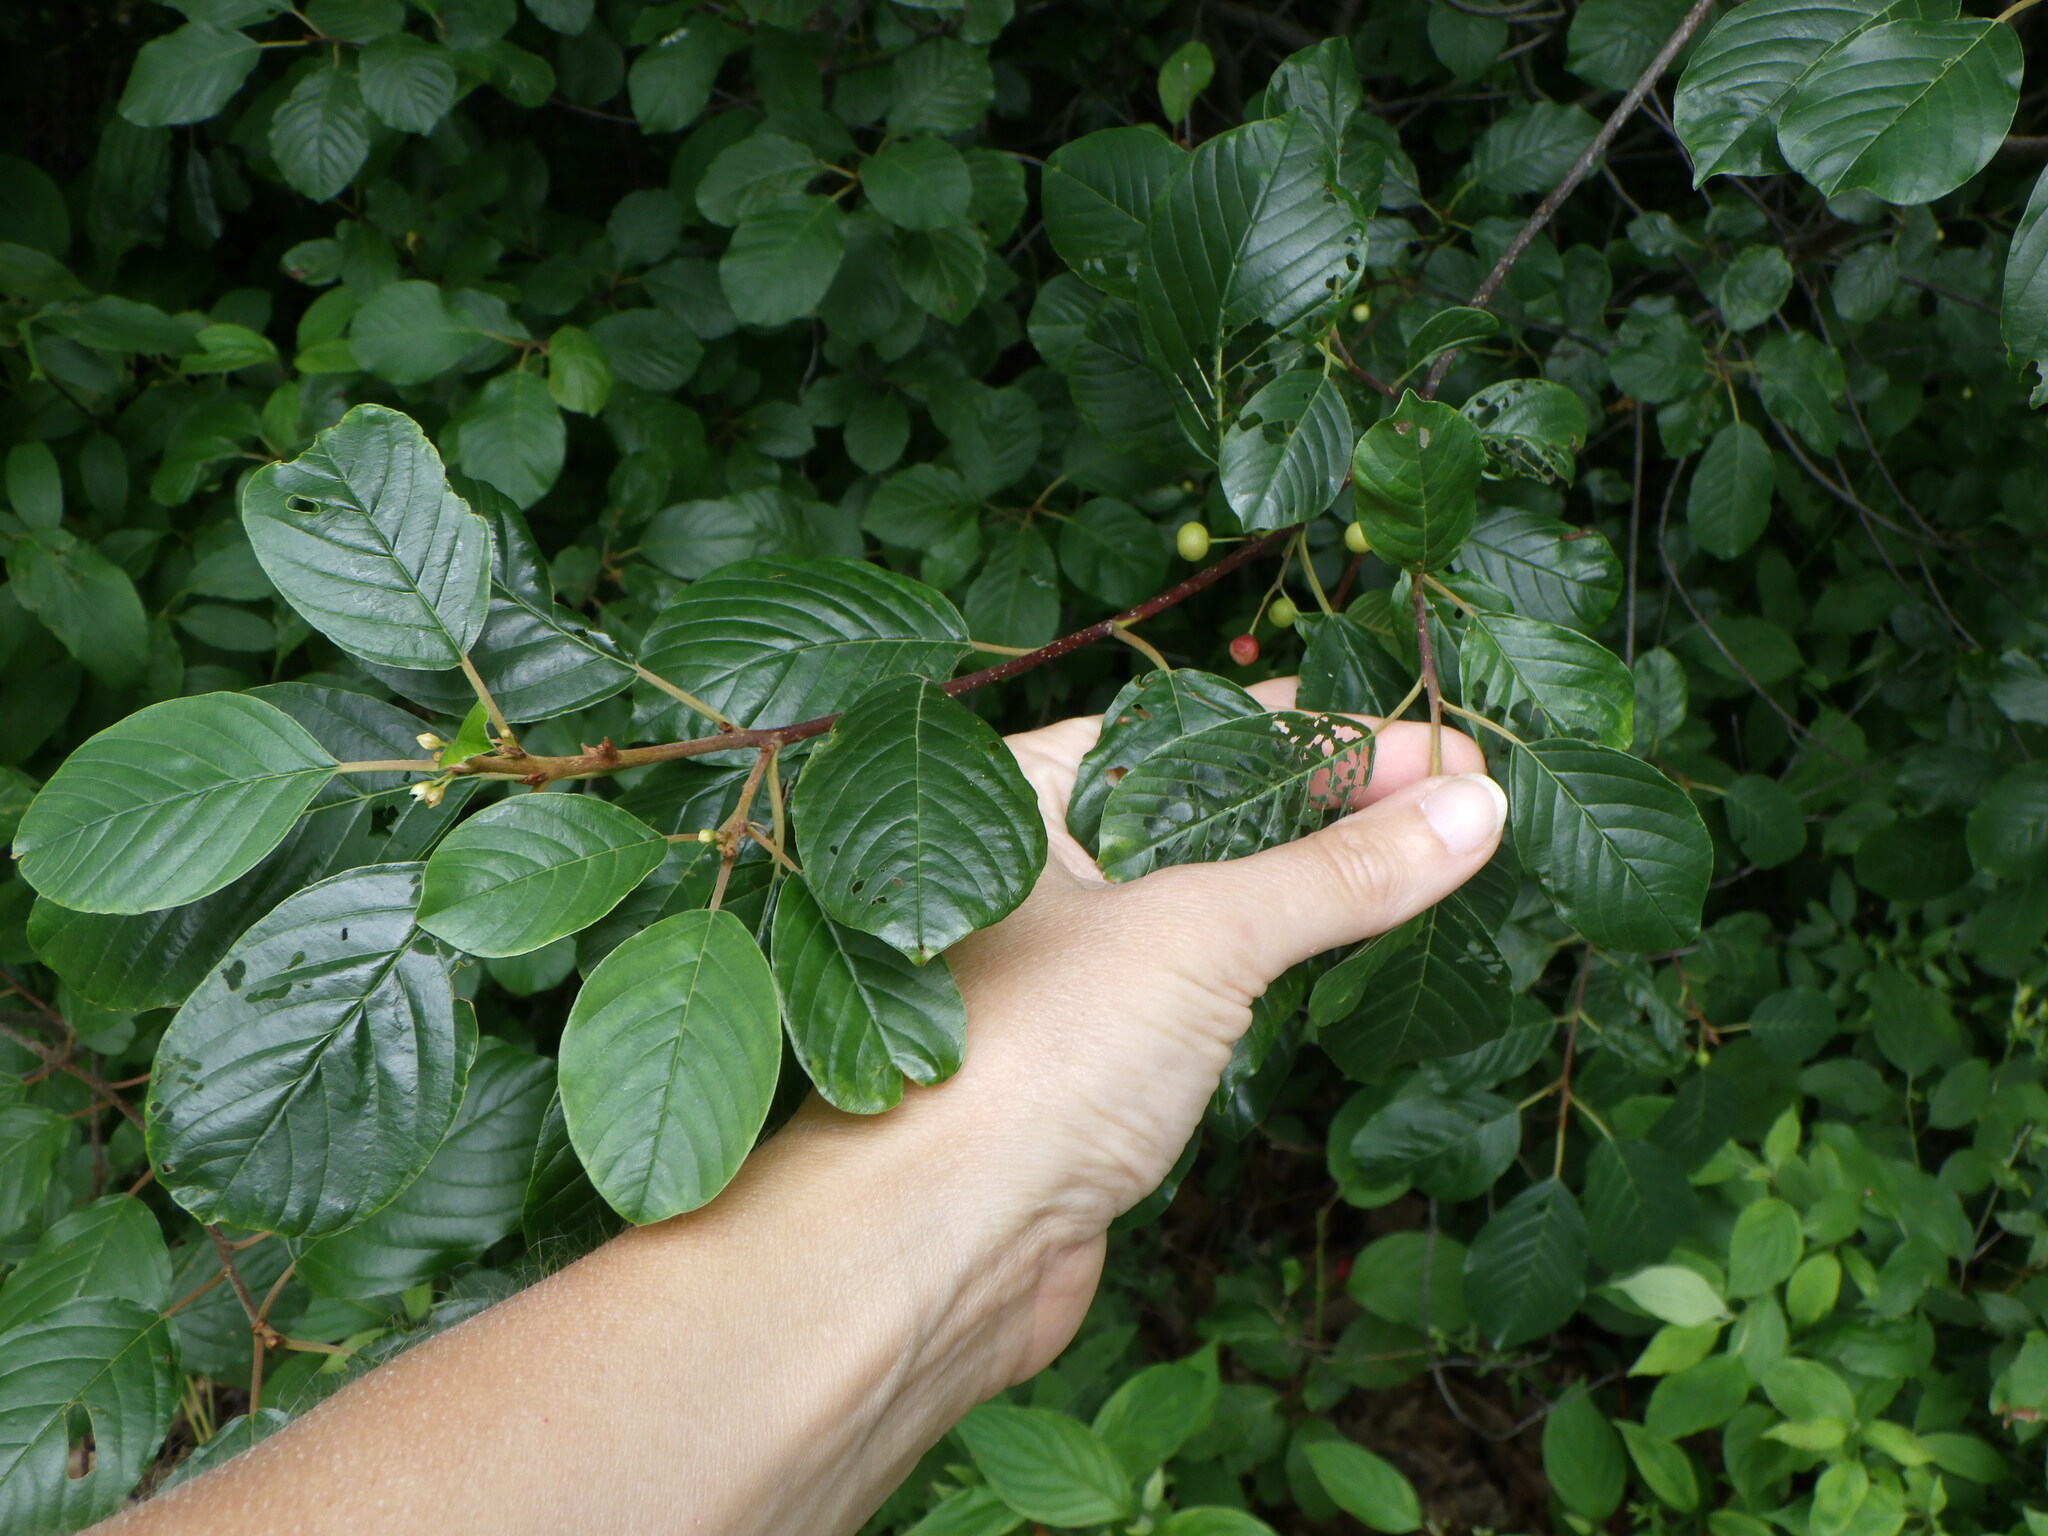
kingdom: Plantae
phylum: Tracheophyta
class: Magnoliopsida
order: Rosales
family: Rhamnaceae
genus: Frangula
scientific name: Frangula alnus
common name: Alder buckthorn
